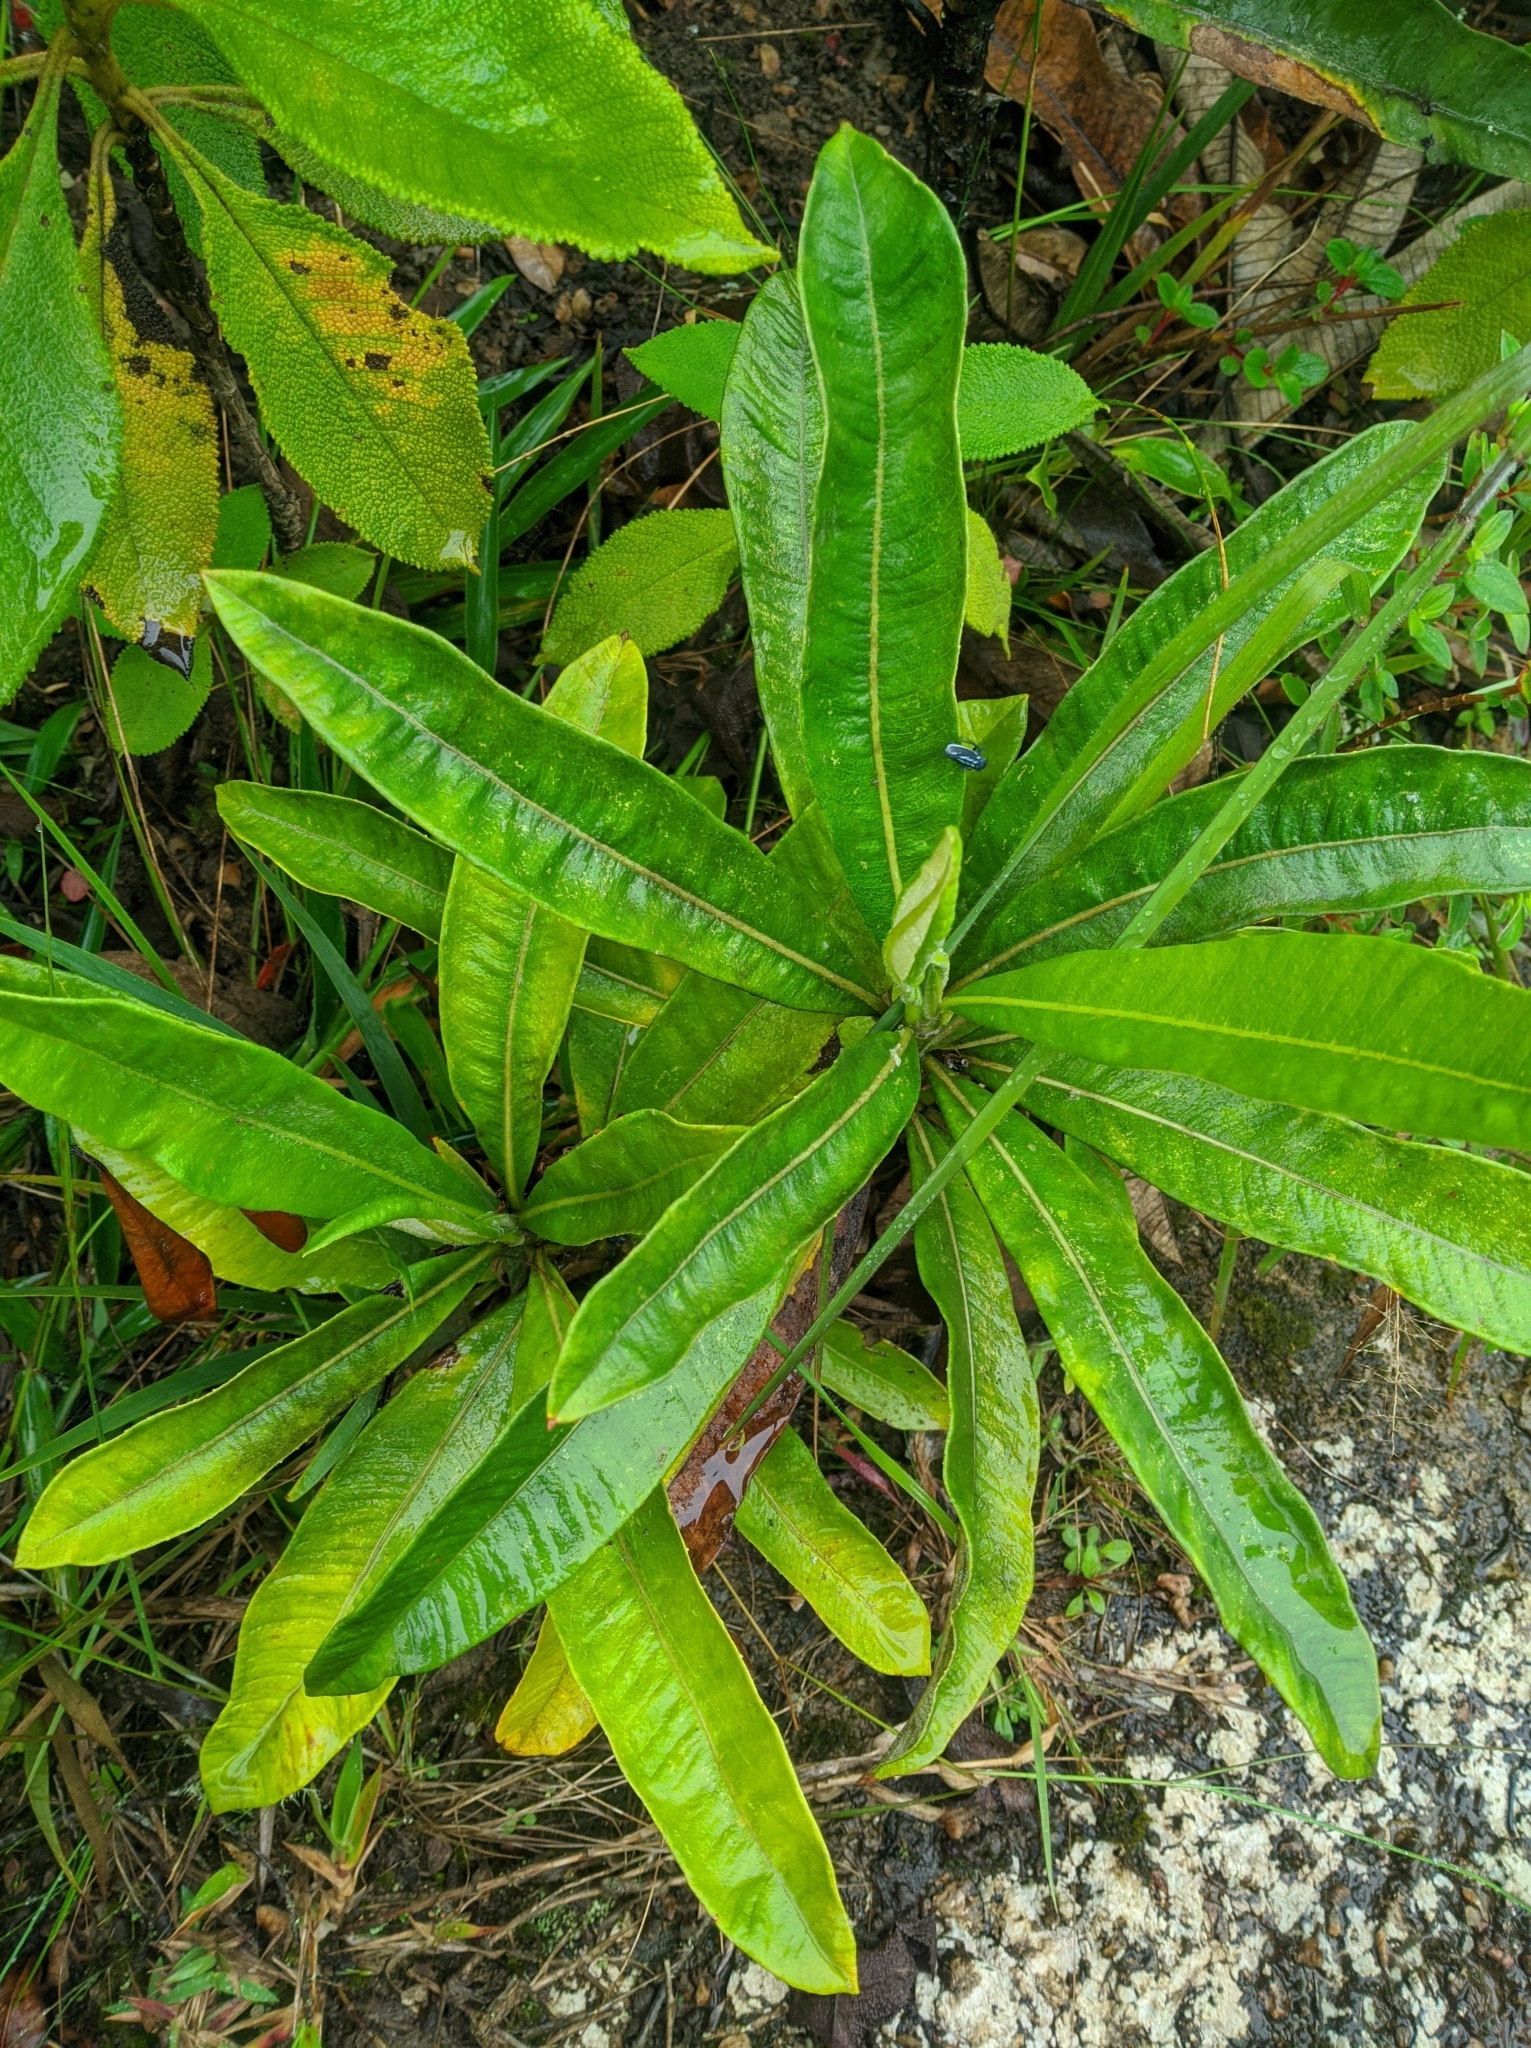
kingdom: Plantae
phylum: Tracheophyta
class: Magnoliopsida
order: Asterales
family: Asteraceae
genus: Espeletia
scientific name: Espeletia neriifolia
